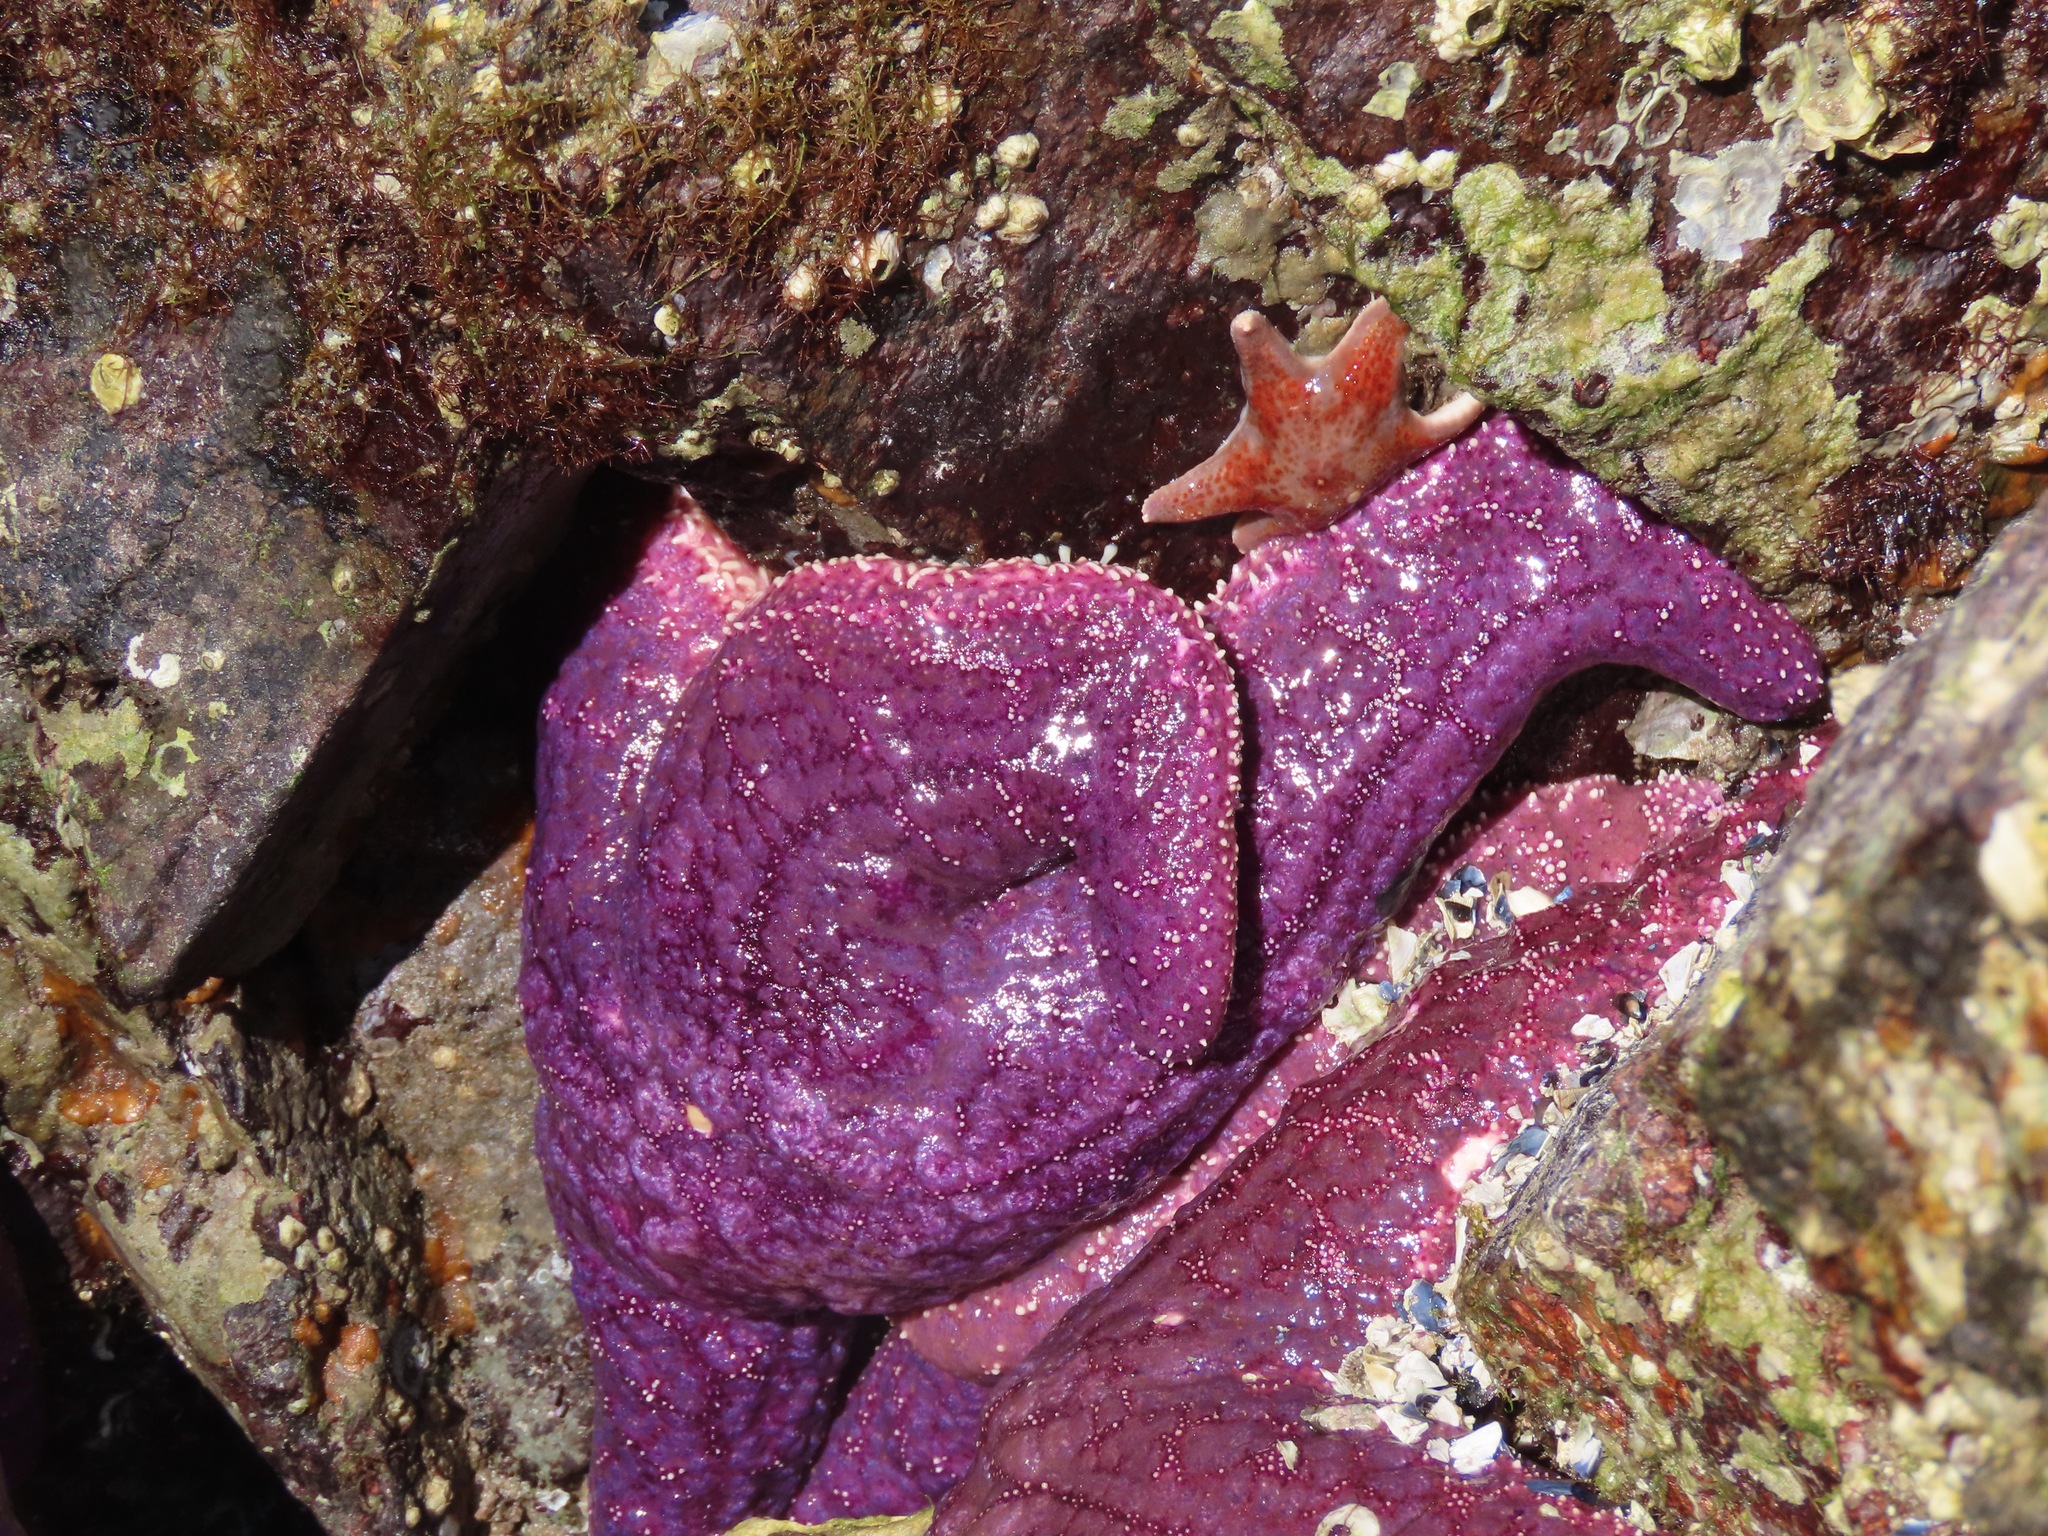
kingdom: Animalia
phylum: Echinodermata
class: Asteroidea
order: Forcipulatida
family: Asteriidae
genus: Pisaster
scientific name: Pisaster ochraceus
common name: Ochre stars
